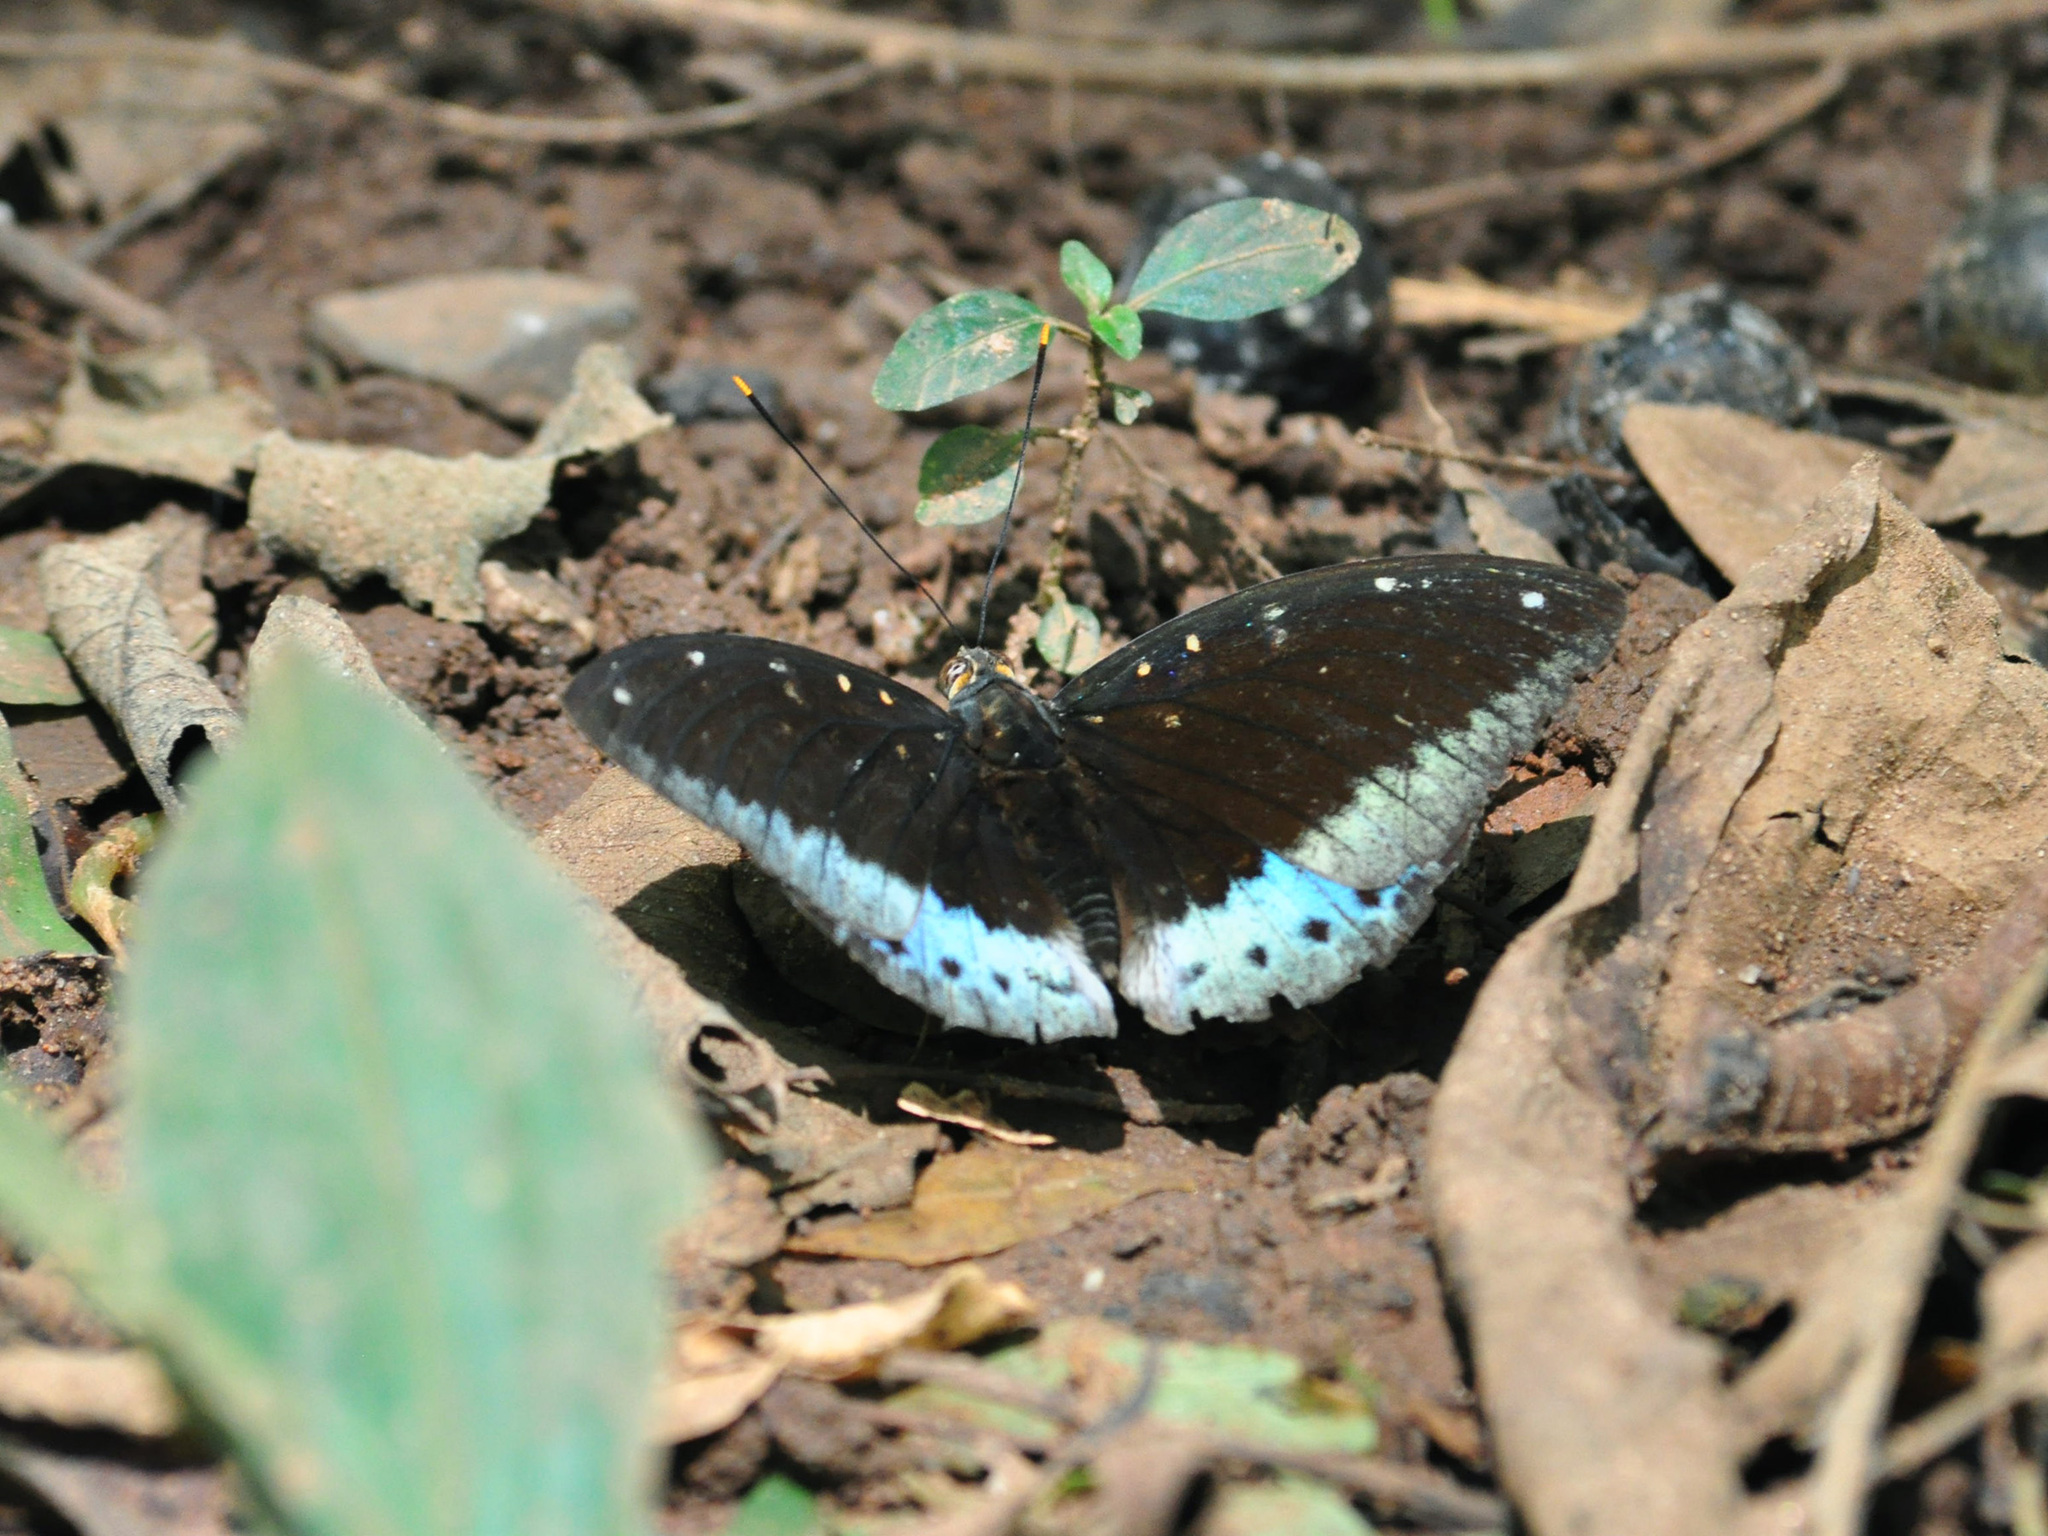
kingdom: Animalia
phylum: Arthropoda
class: Insecta
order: Lepidoptera
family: Nymphalidae
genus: Lexias
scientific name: Lexias pardalis
